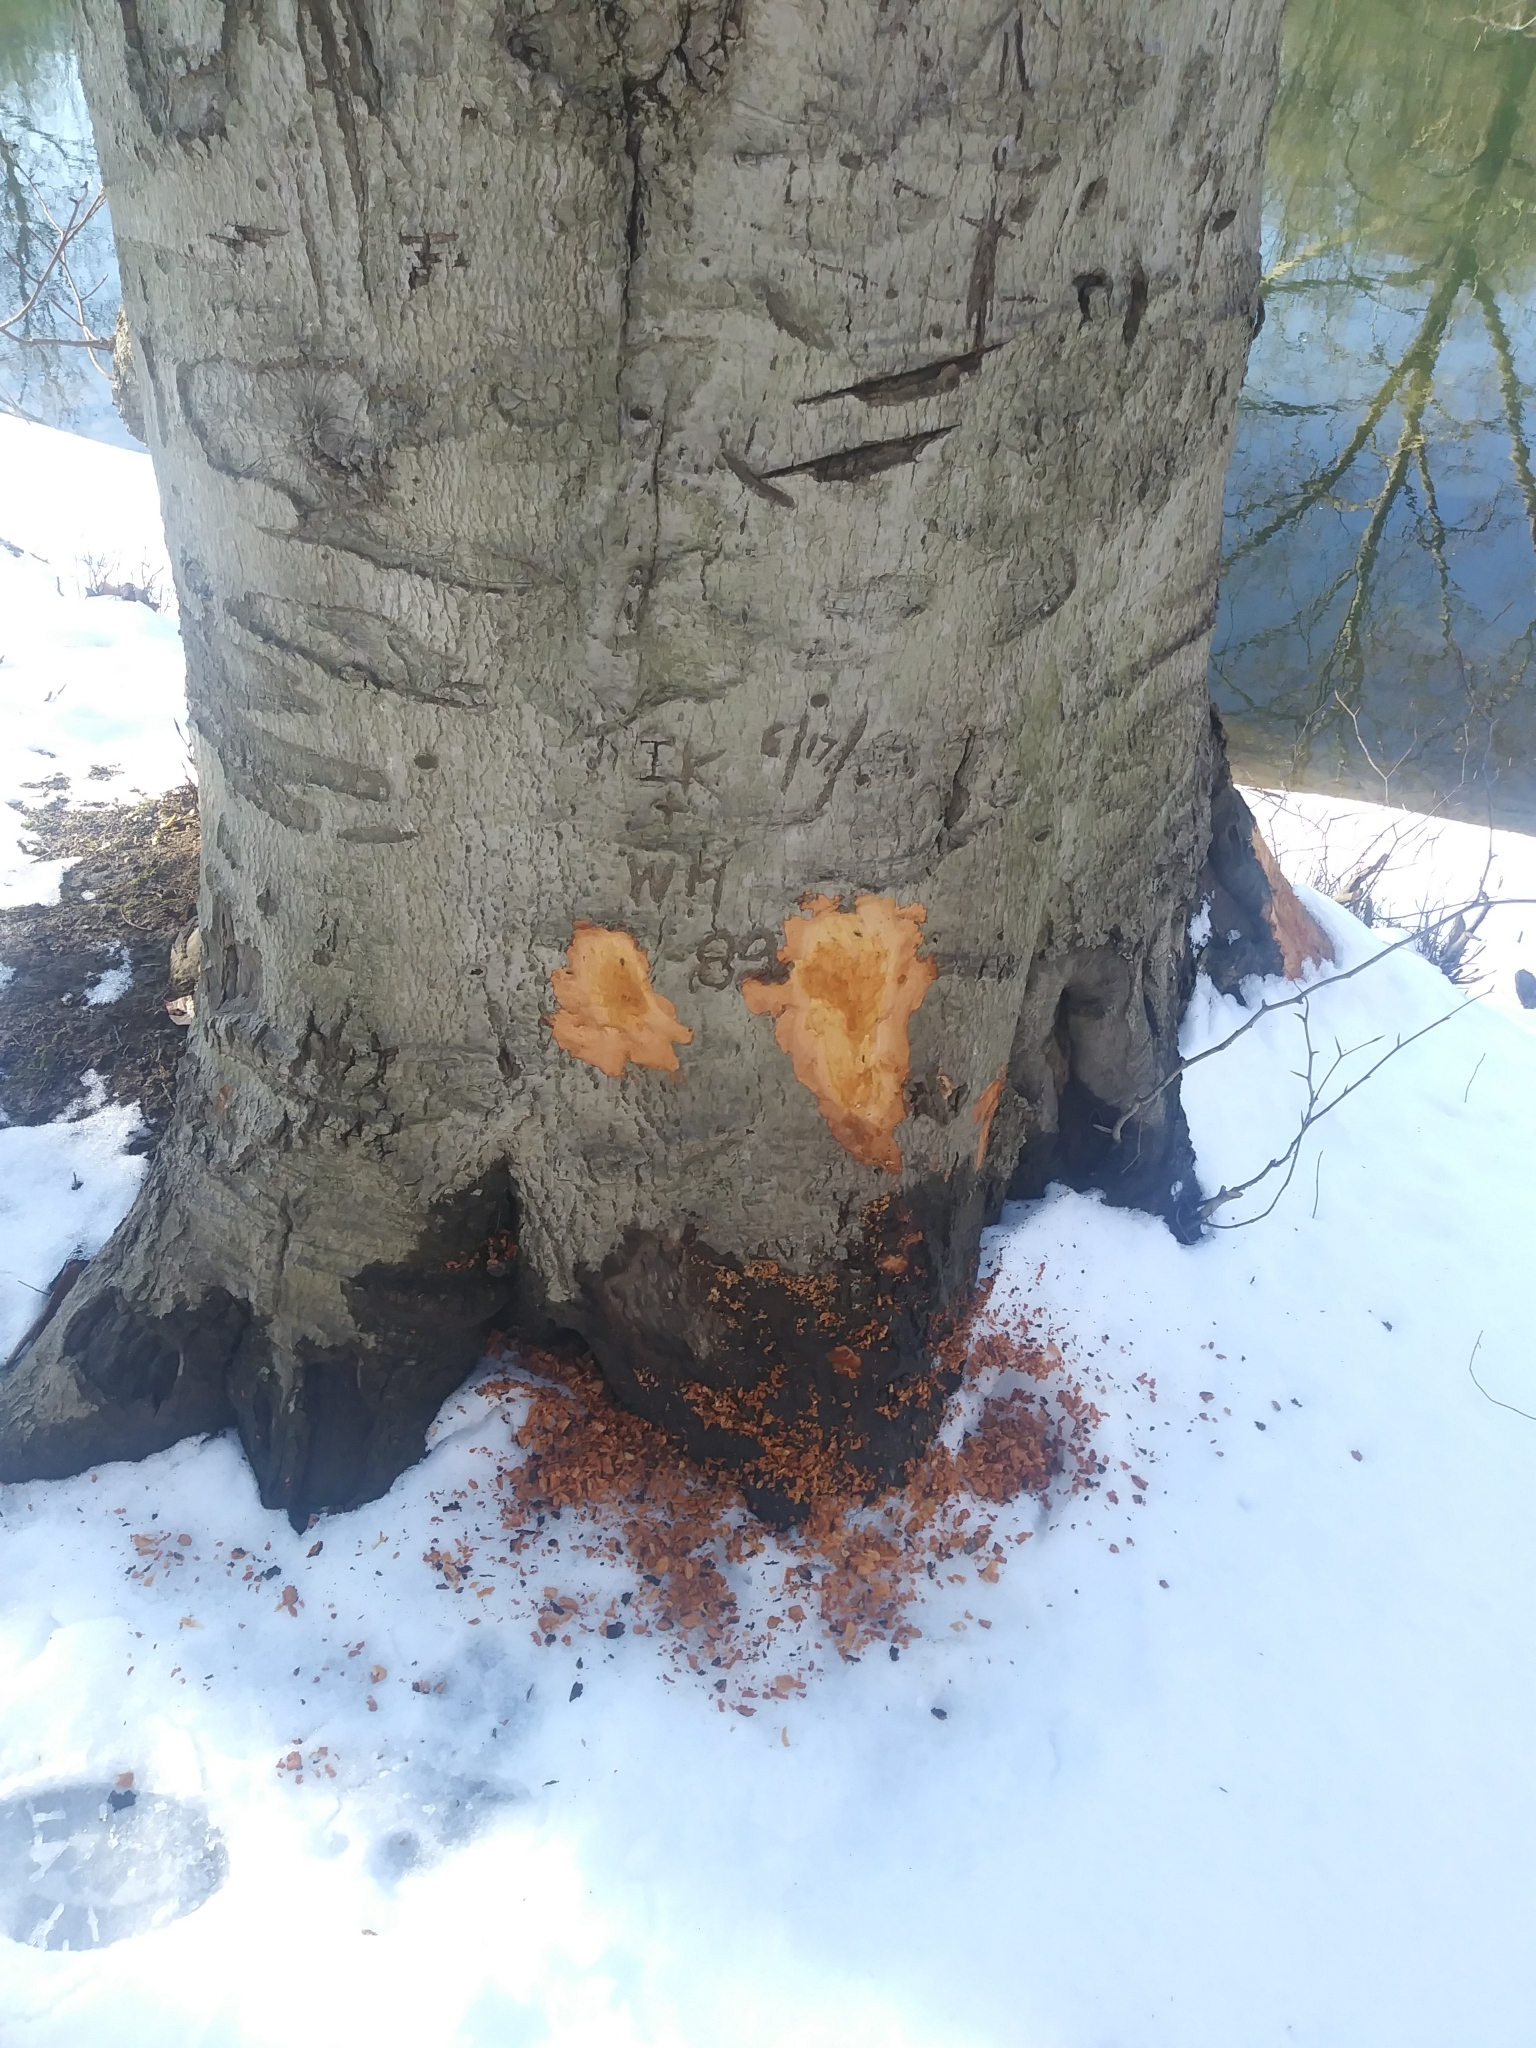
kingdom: Animalia
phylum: Chordata
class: Mammalia
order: Rodentia
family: Castoridae
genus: Castor
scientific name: Castor canadensis
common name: American beaver
